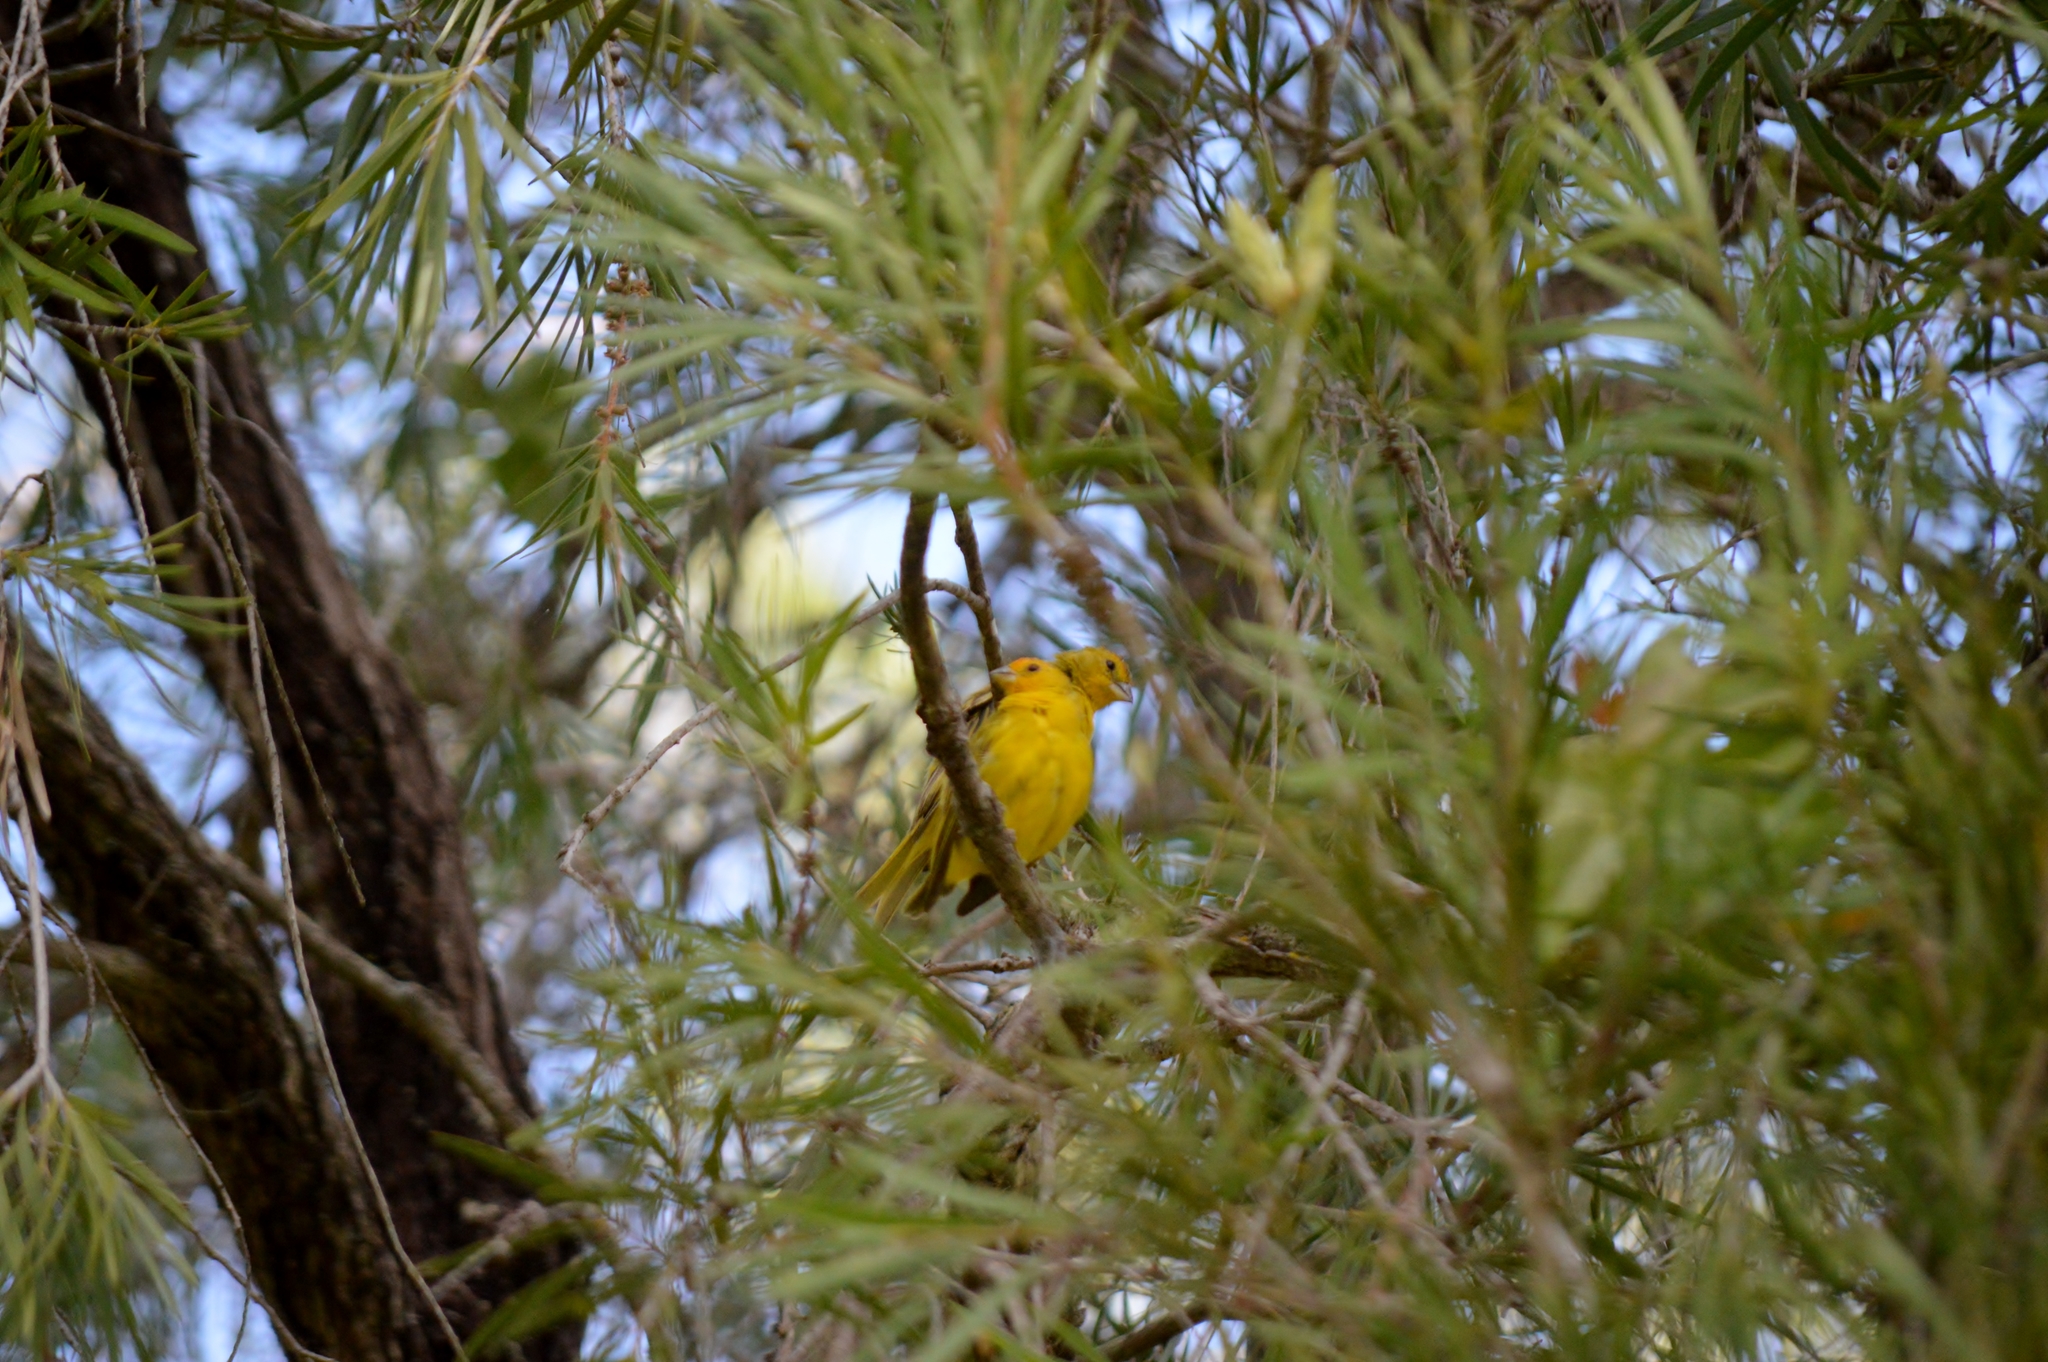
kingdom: Animalia
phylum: Chordata
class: Aves
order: Passeriformes
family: Thraupidae
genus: Sicalis
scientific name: Sicalis flaveola
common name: Saffron finch
